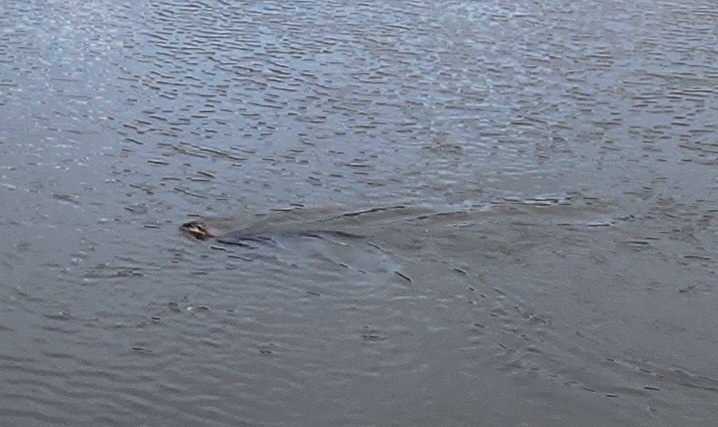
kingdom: Animalia
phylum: Chordata
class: Mammalia
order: Carnivora
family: Mustelidae
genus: Lontra
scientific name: Lontra canadensis
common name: North american river otter
